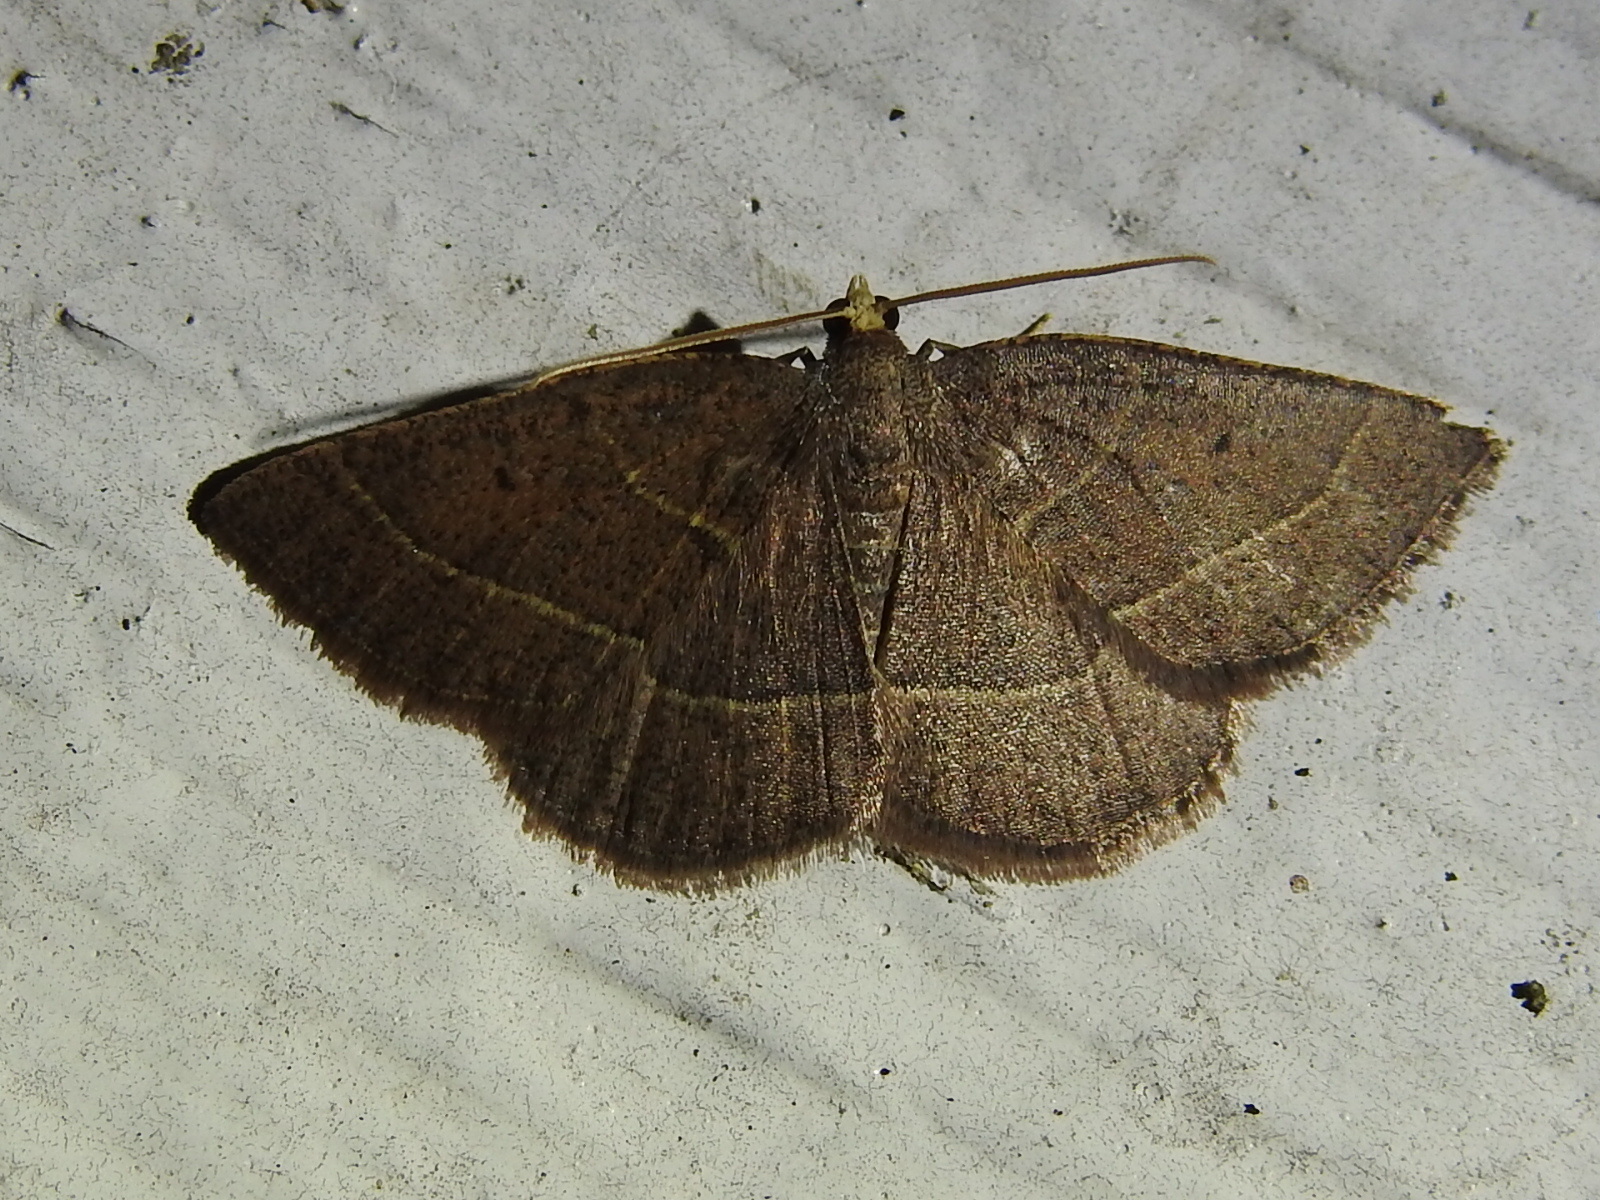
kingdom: Animalia
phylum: Arthropoda
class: Insecta
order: Lepidoptera
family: Geometridae
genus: Episemasia
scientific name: Episemasia cervinaria
